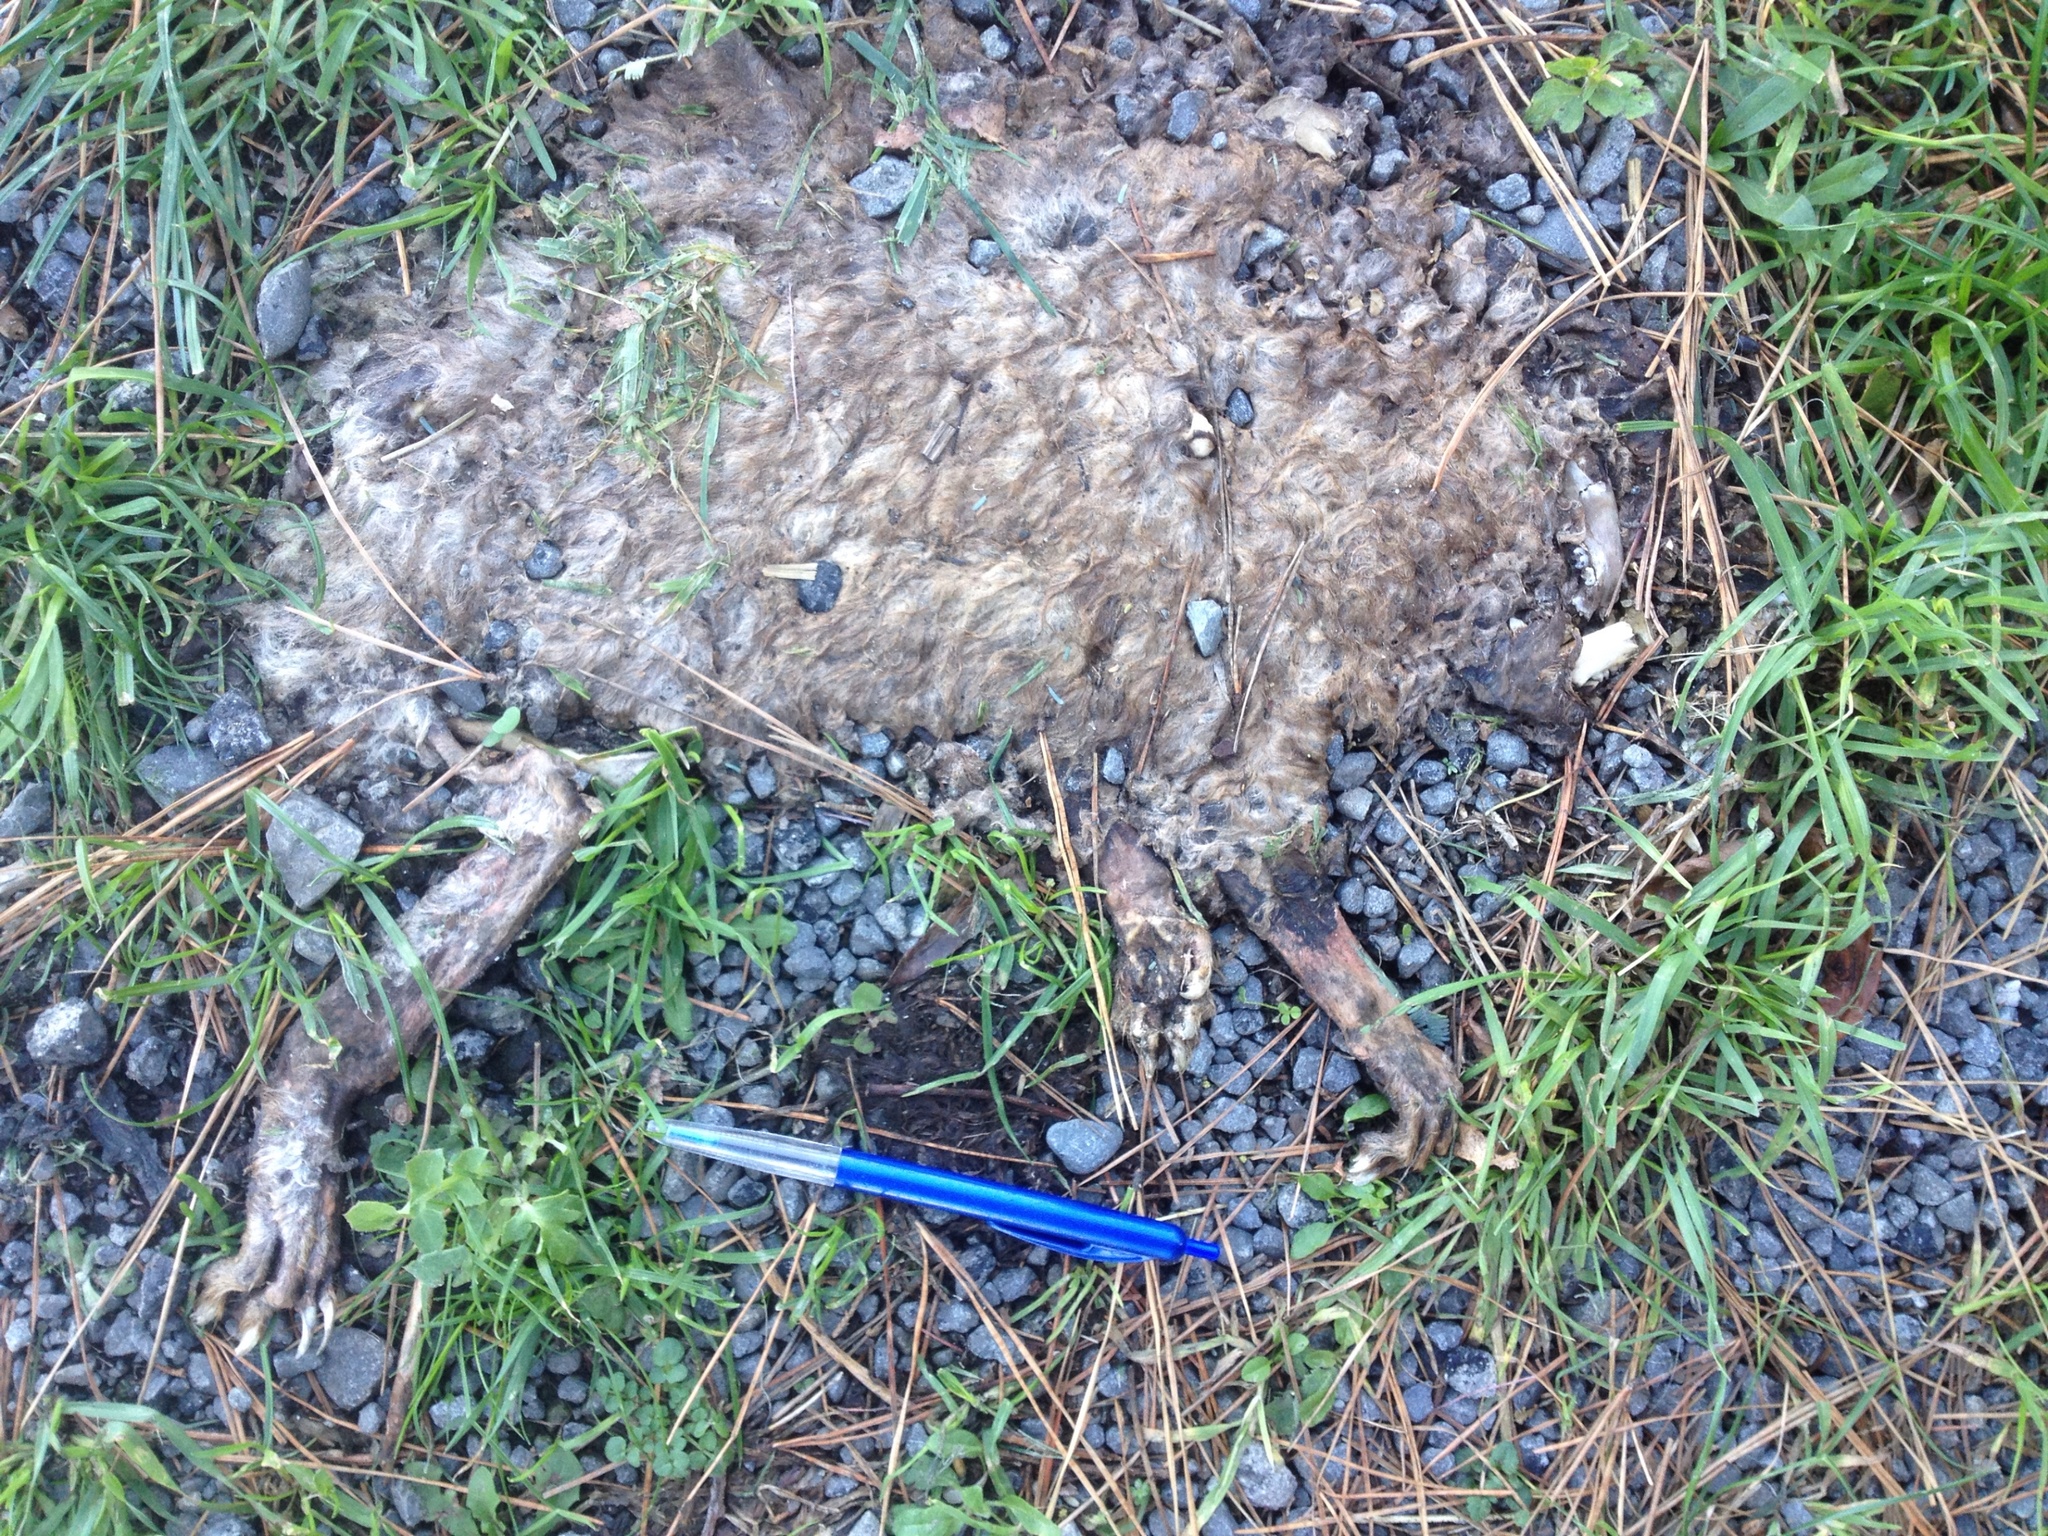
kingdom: Animalia
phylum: Chordata
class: Mammalia
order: Diprotodontia
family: Phalangeridae
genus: Trichosurus
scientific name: Trichosurus vulpecula
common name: Common brushtail
